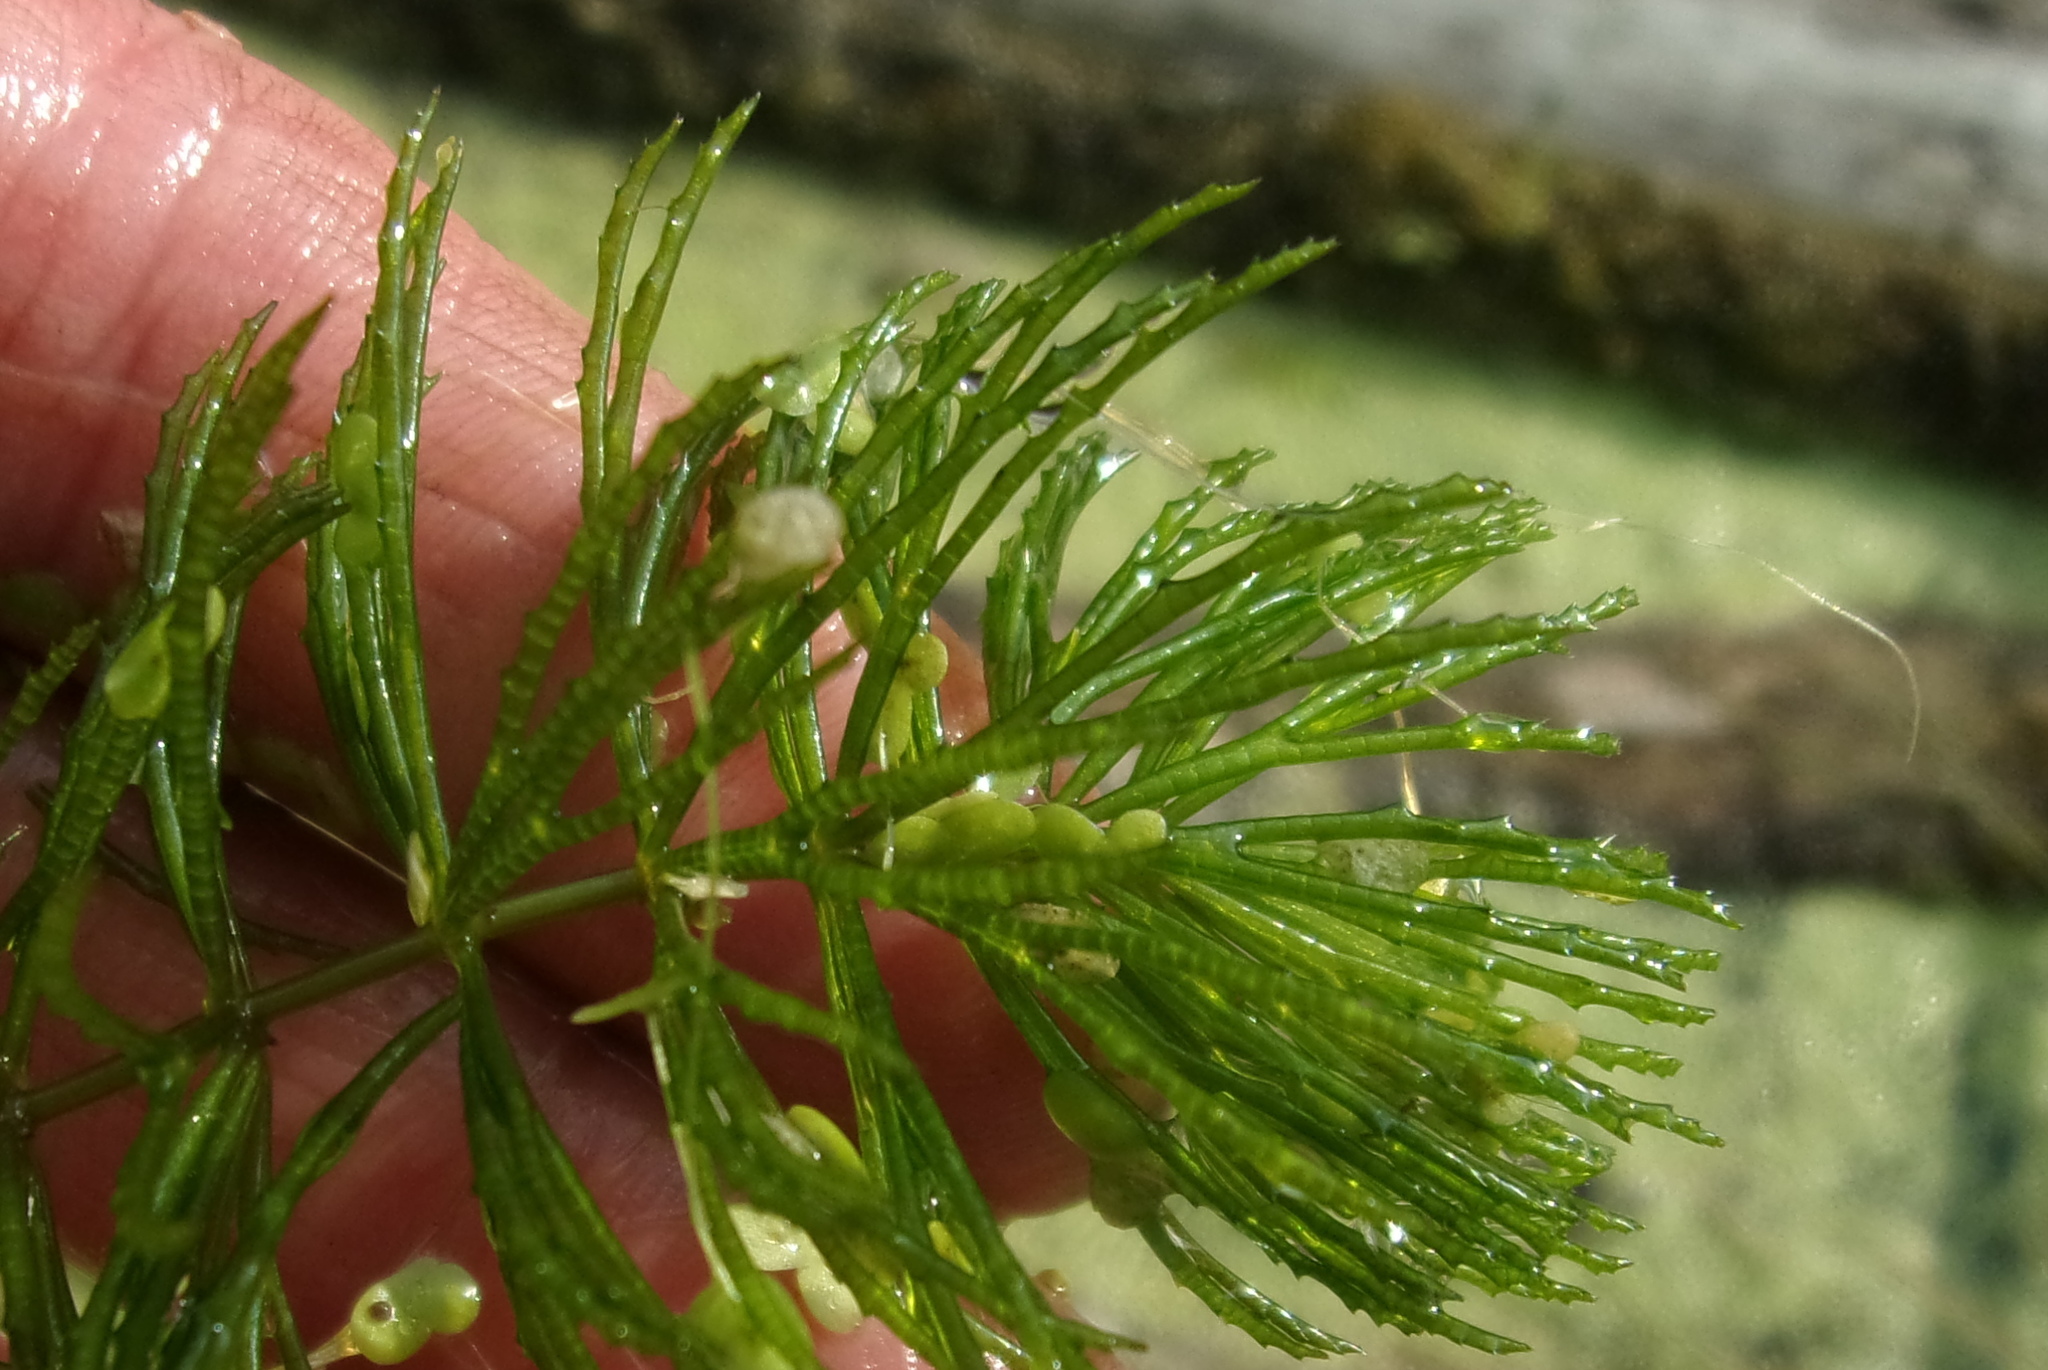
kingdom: Plantae
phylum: Tracheophyta
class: Magnoliopsida
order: Ceratophyllales
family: Ceratophyllaceae
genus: Ceratophyllum
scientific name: Ceratophyllum demersum
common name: Rigid hornwort
